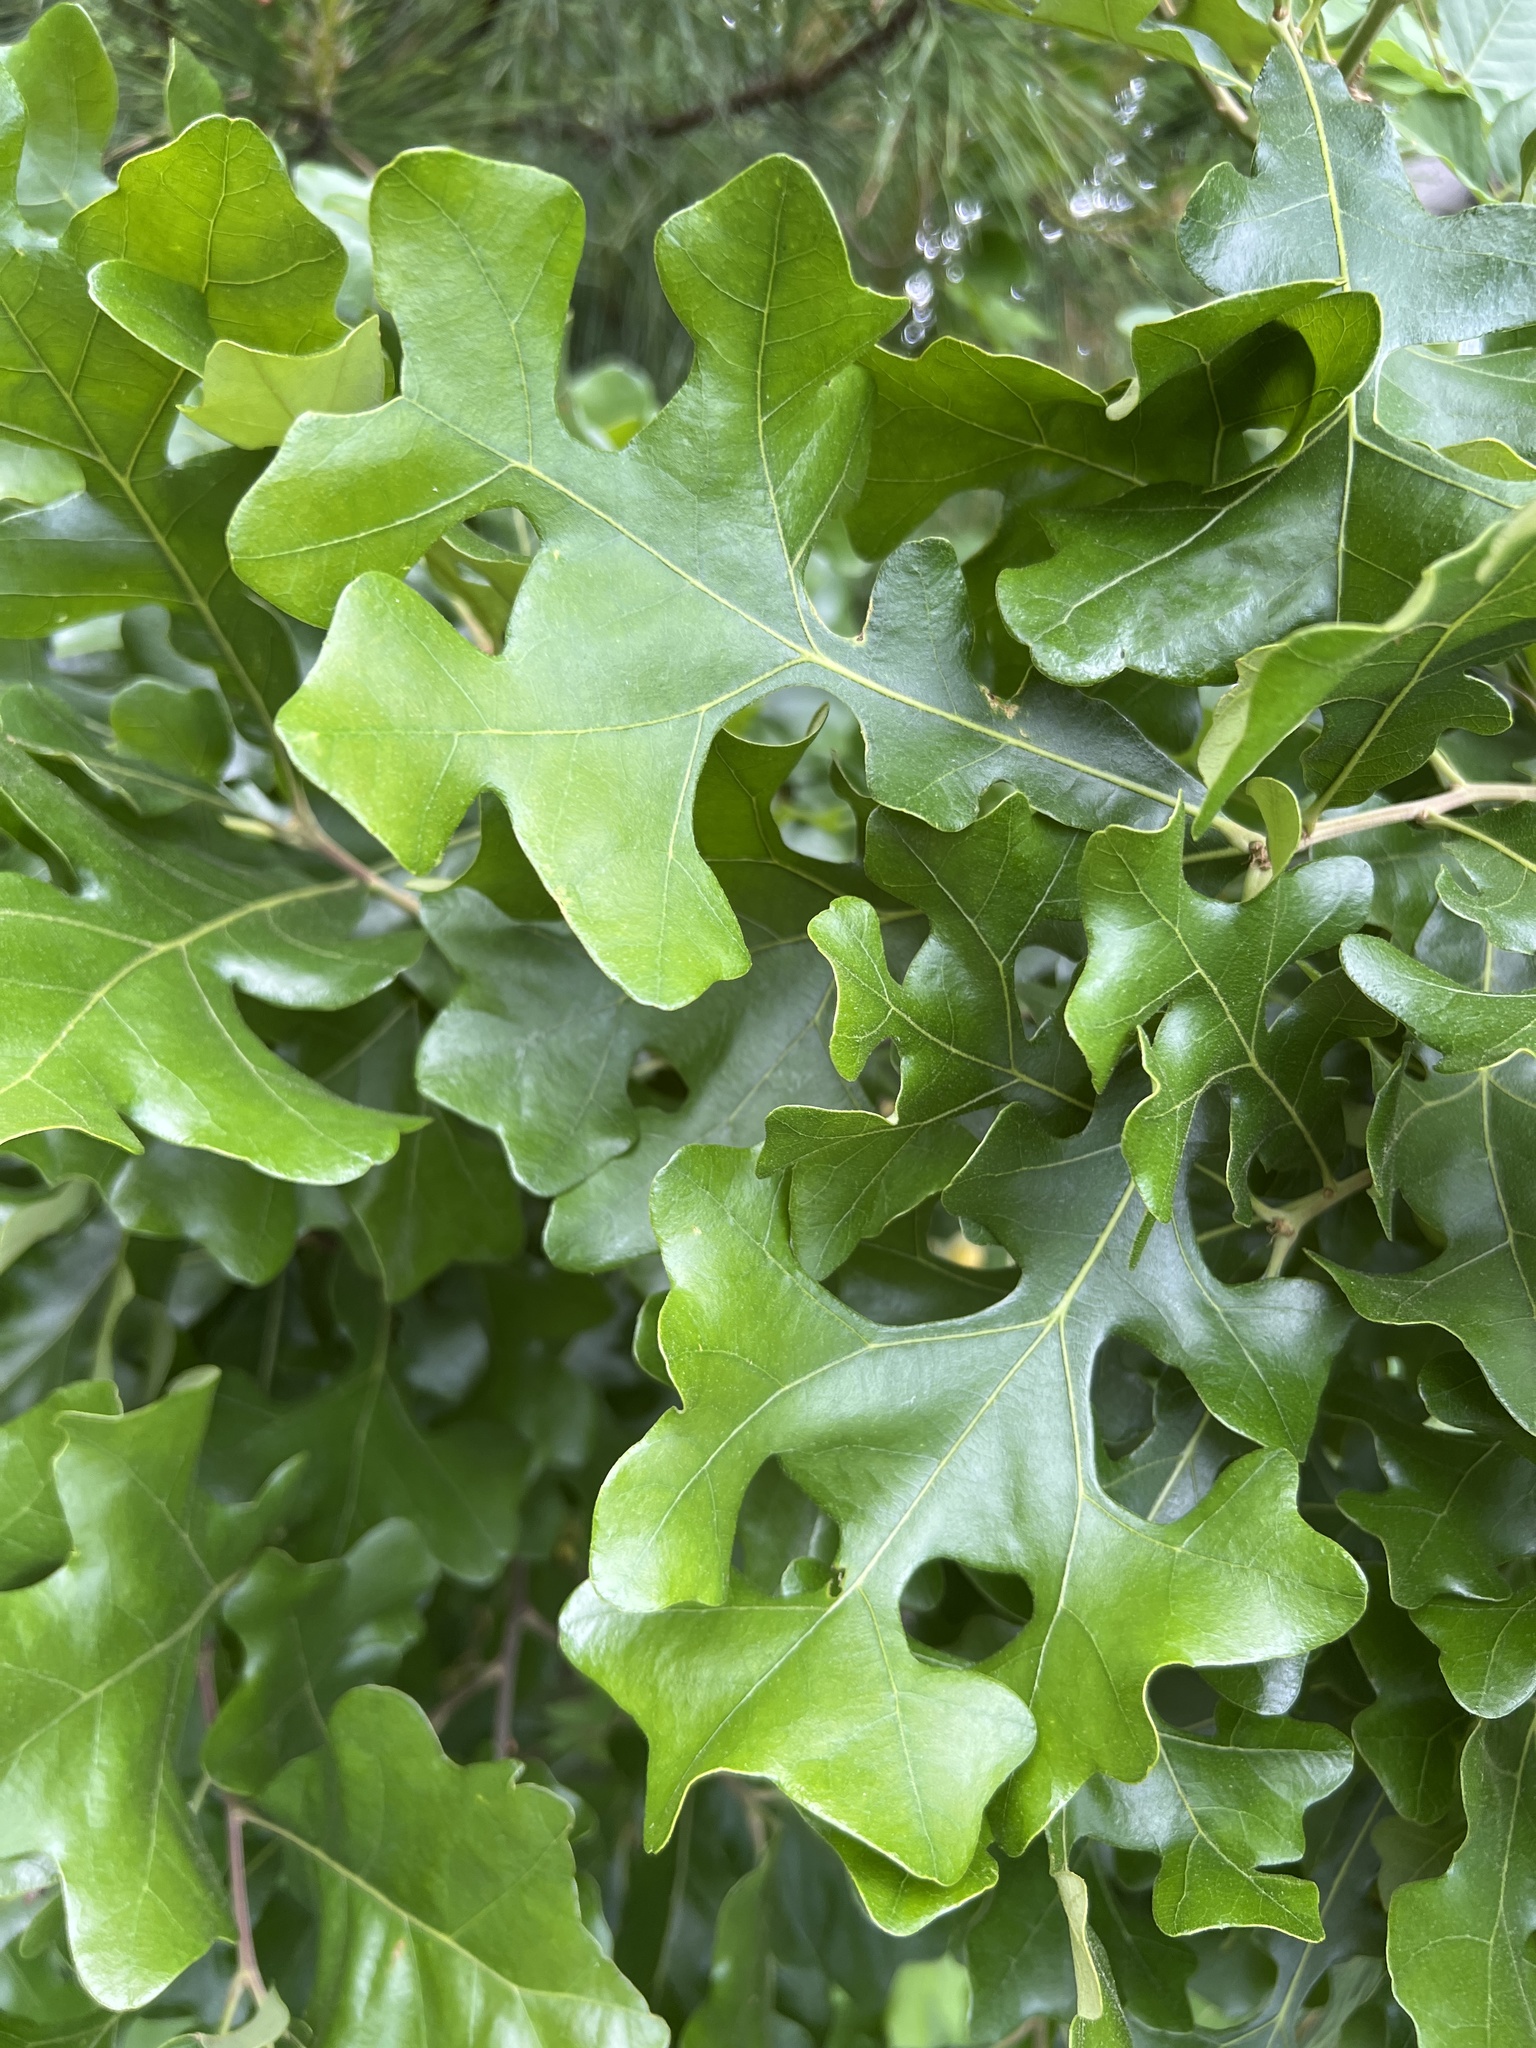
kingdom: Plantae
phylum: Tracheophyta
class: Magnoliopsida
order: Fagales
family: Fagaceae
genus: Quercus
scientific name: Quercus stellata
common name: Post oak
